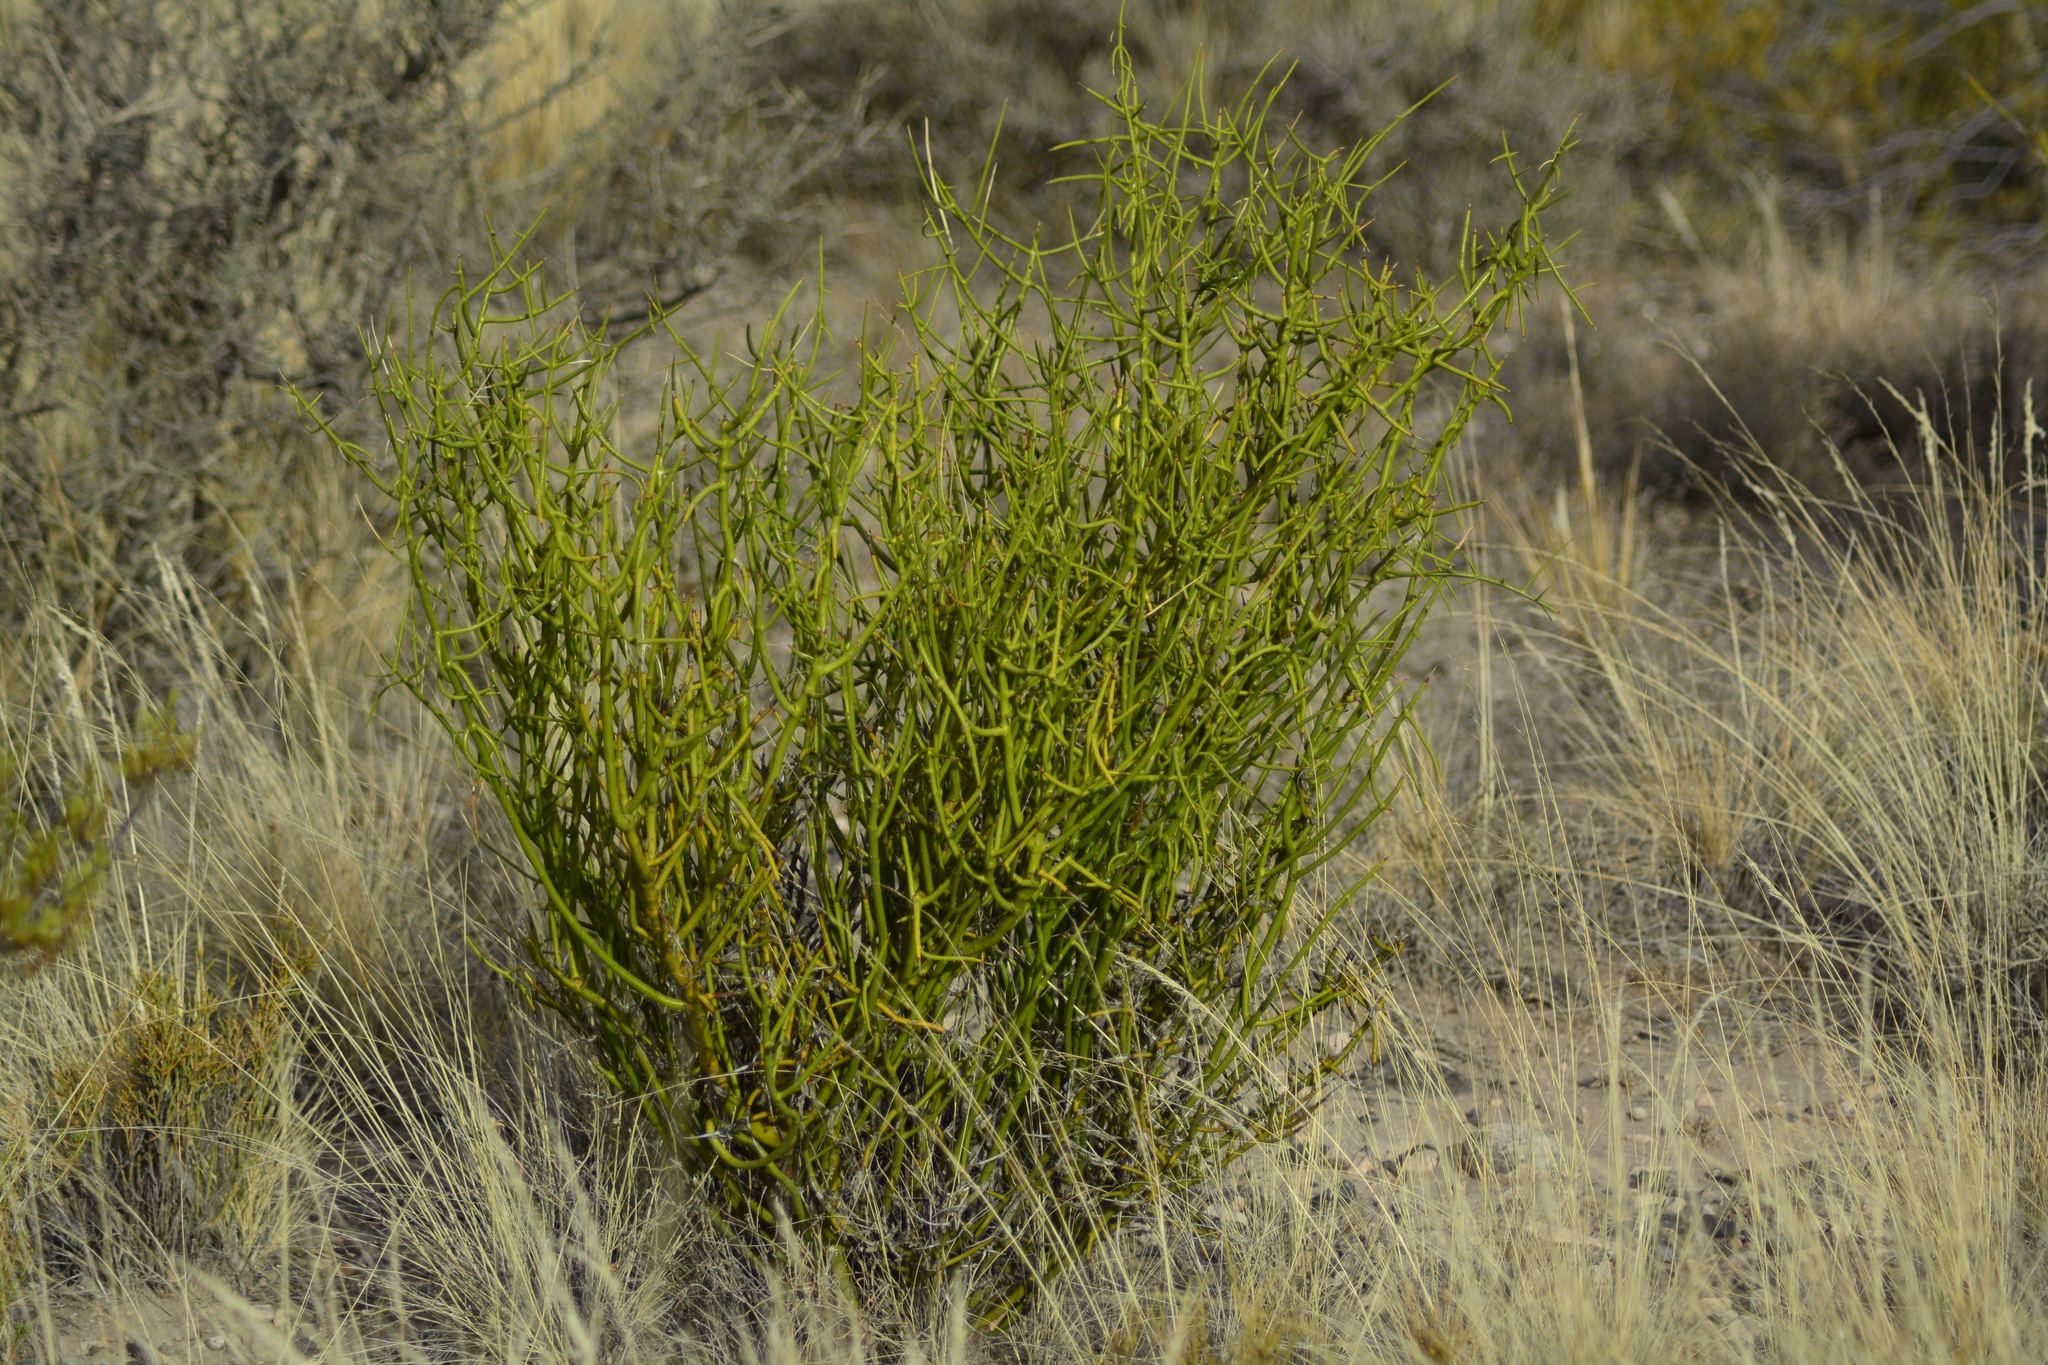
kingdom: Plantae
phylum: Tracheophyta
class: Magnoliopsida
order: Lamiales
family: Plantaginaceae
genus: Monttea
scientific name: Monttea aphylla
